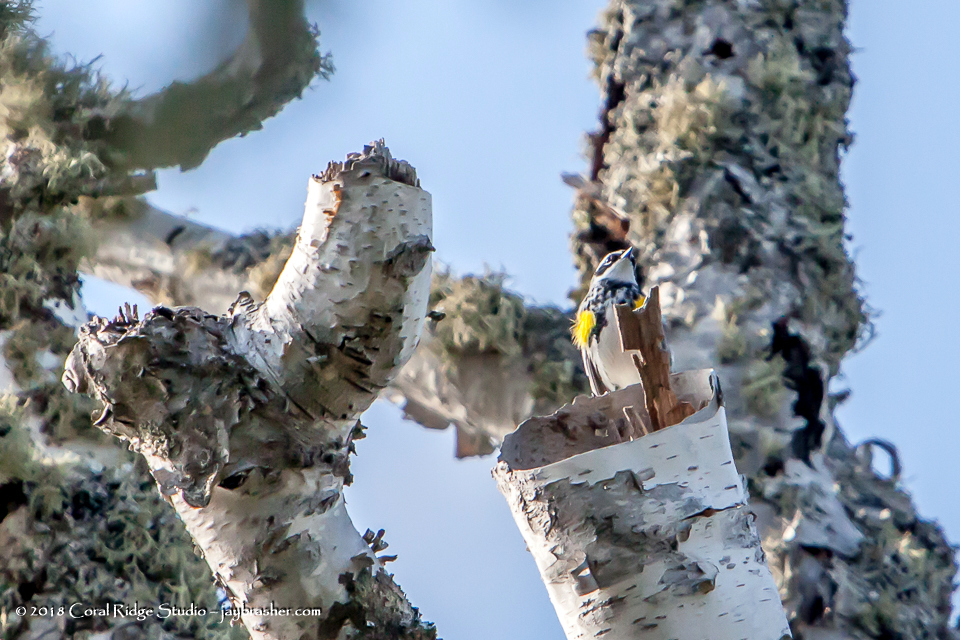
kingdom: Animalia
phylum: Chordata
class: Aves
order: Passeriformes
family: Parulidae
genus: Setophaga
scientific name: Setophaga coronata
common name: Myrtle warbler
